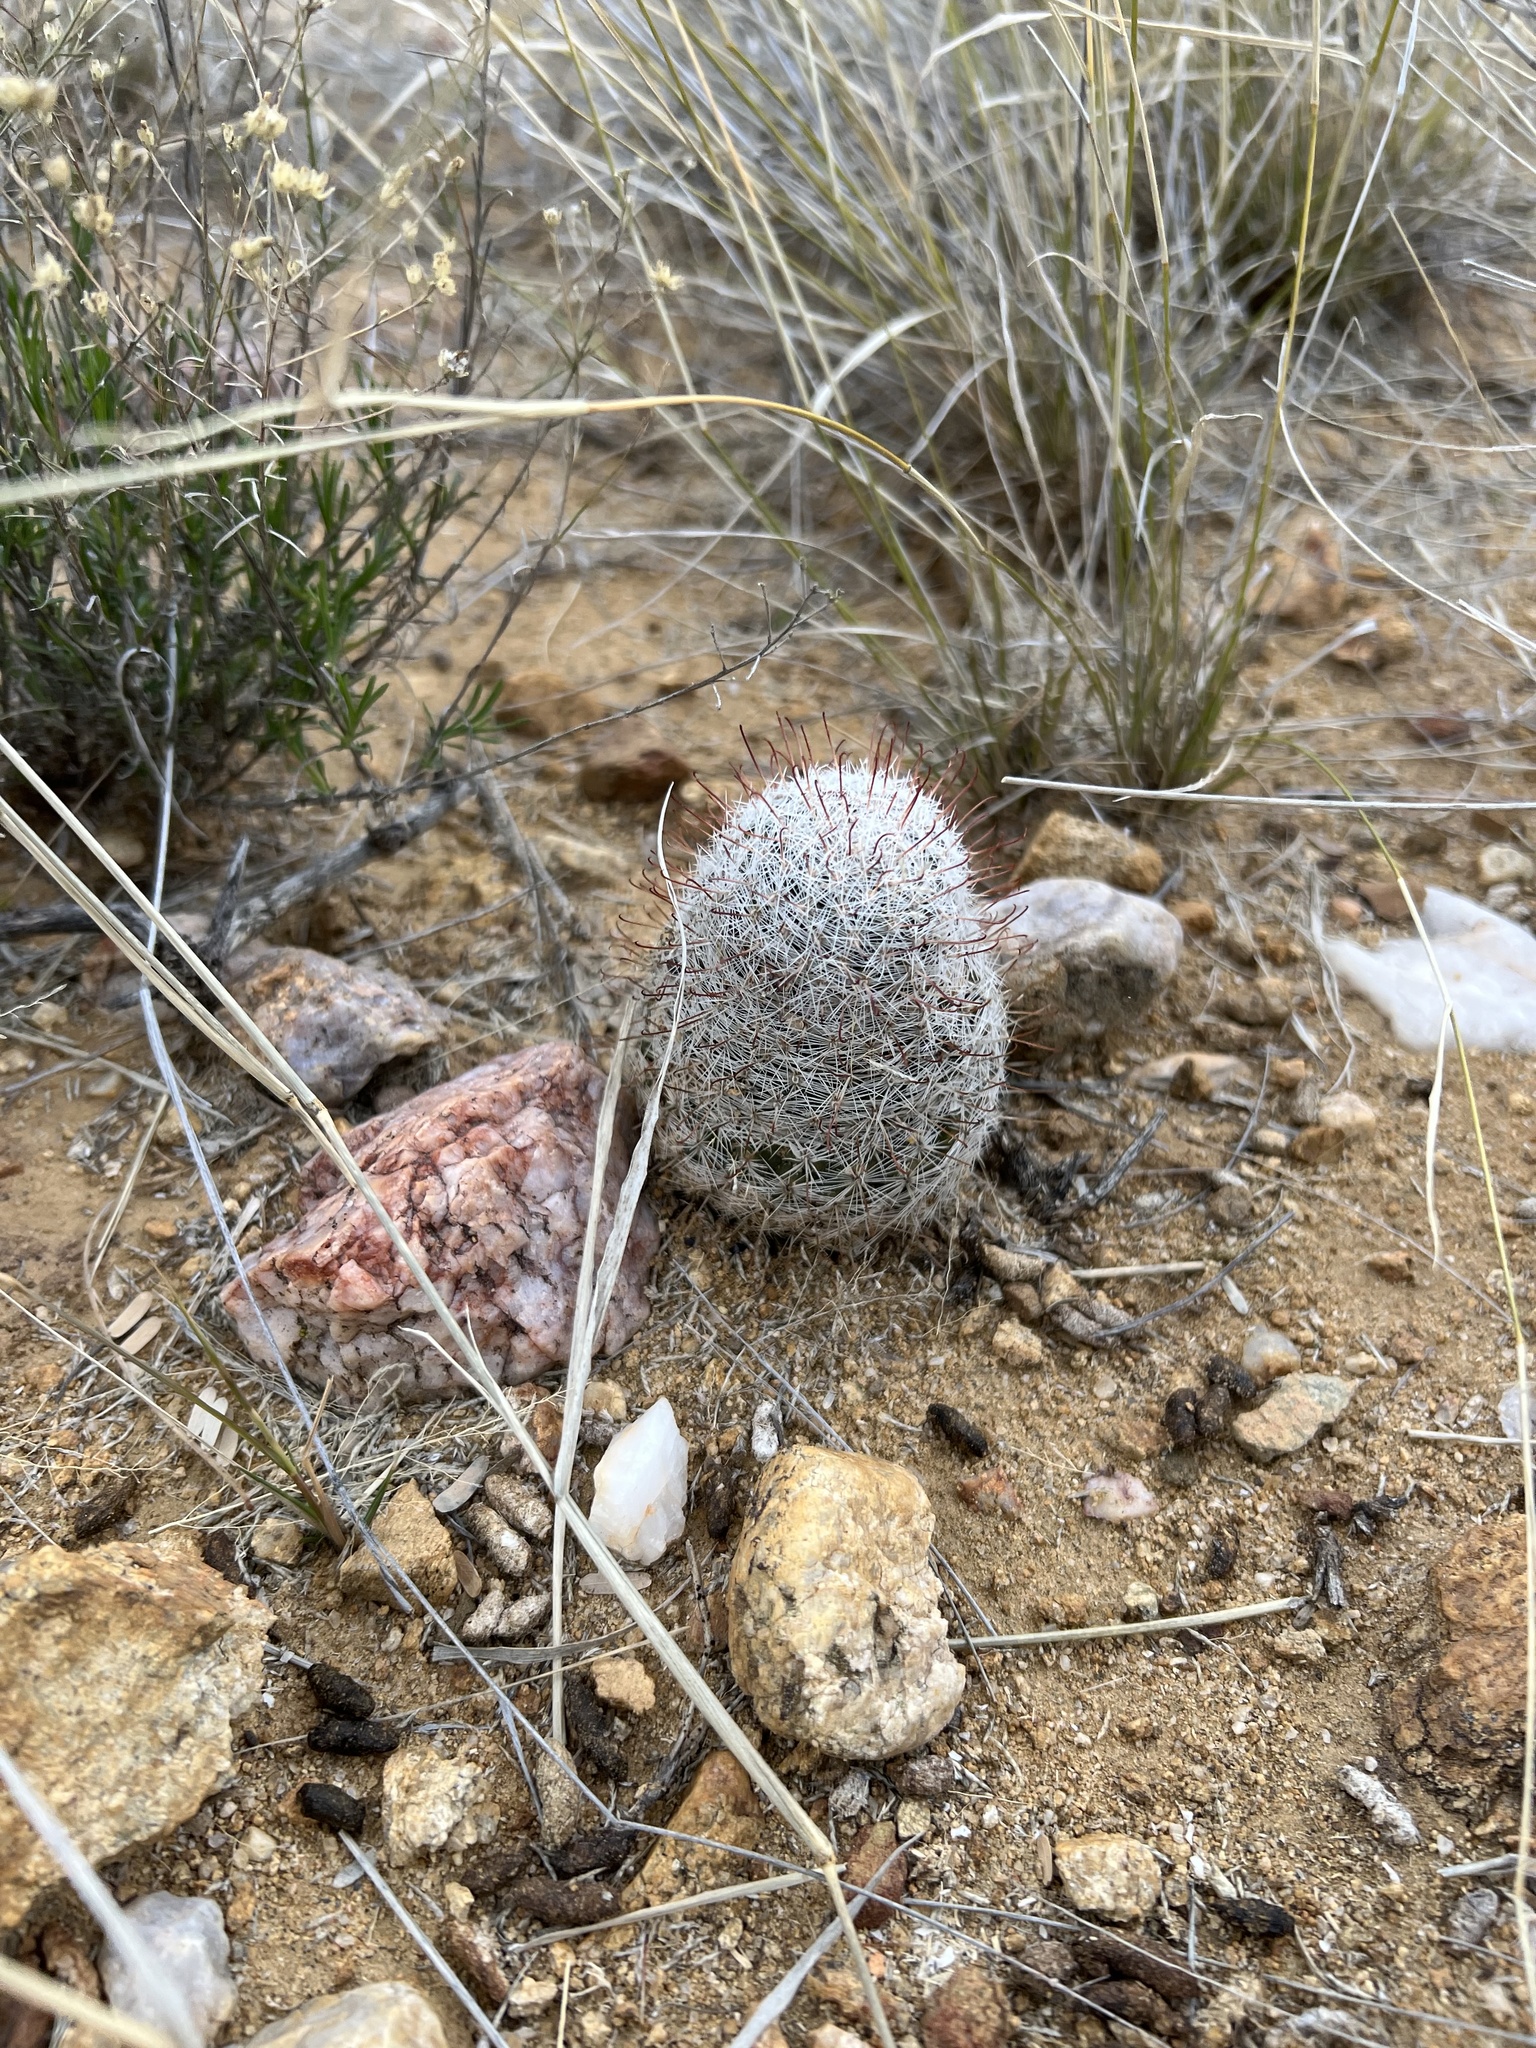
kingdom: Plantae
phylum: Tracheophyta
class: Magnoliopsida
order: Caryophyllales
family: Cactaceae
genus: Cochemiea
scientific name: Cochemiea grahamii
